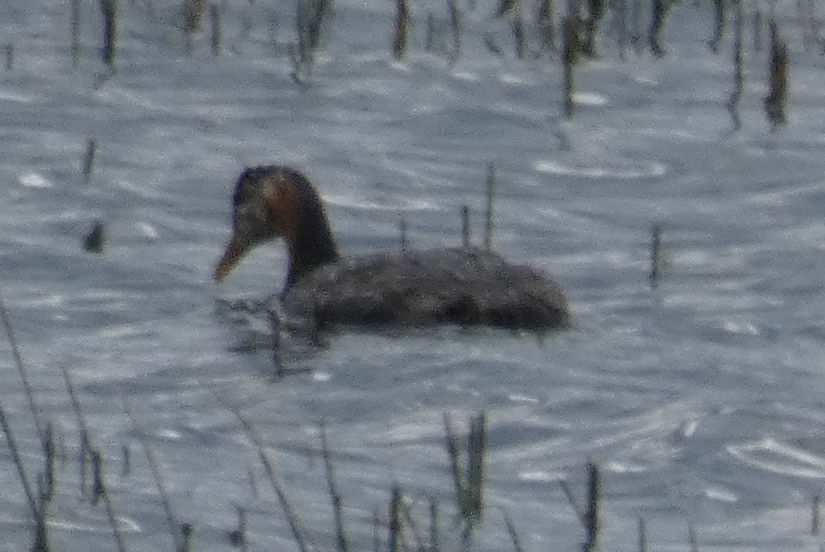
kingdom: Animalia
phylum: Chordata
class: Aves
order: Podicipediformes
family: Podicipedidae
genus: Podiceps
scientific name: Podiceps grisegena
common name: Red-necked grebe
